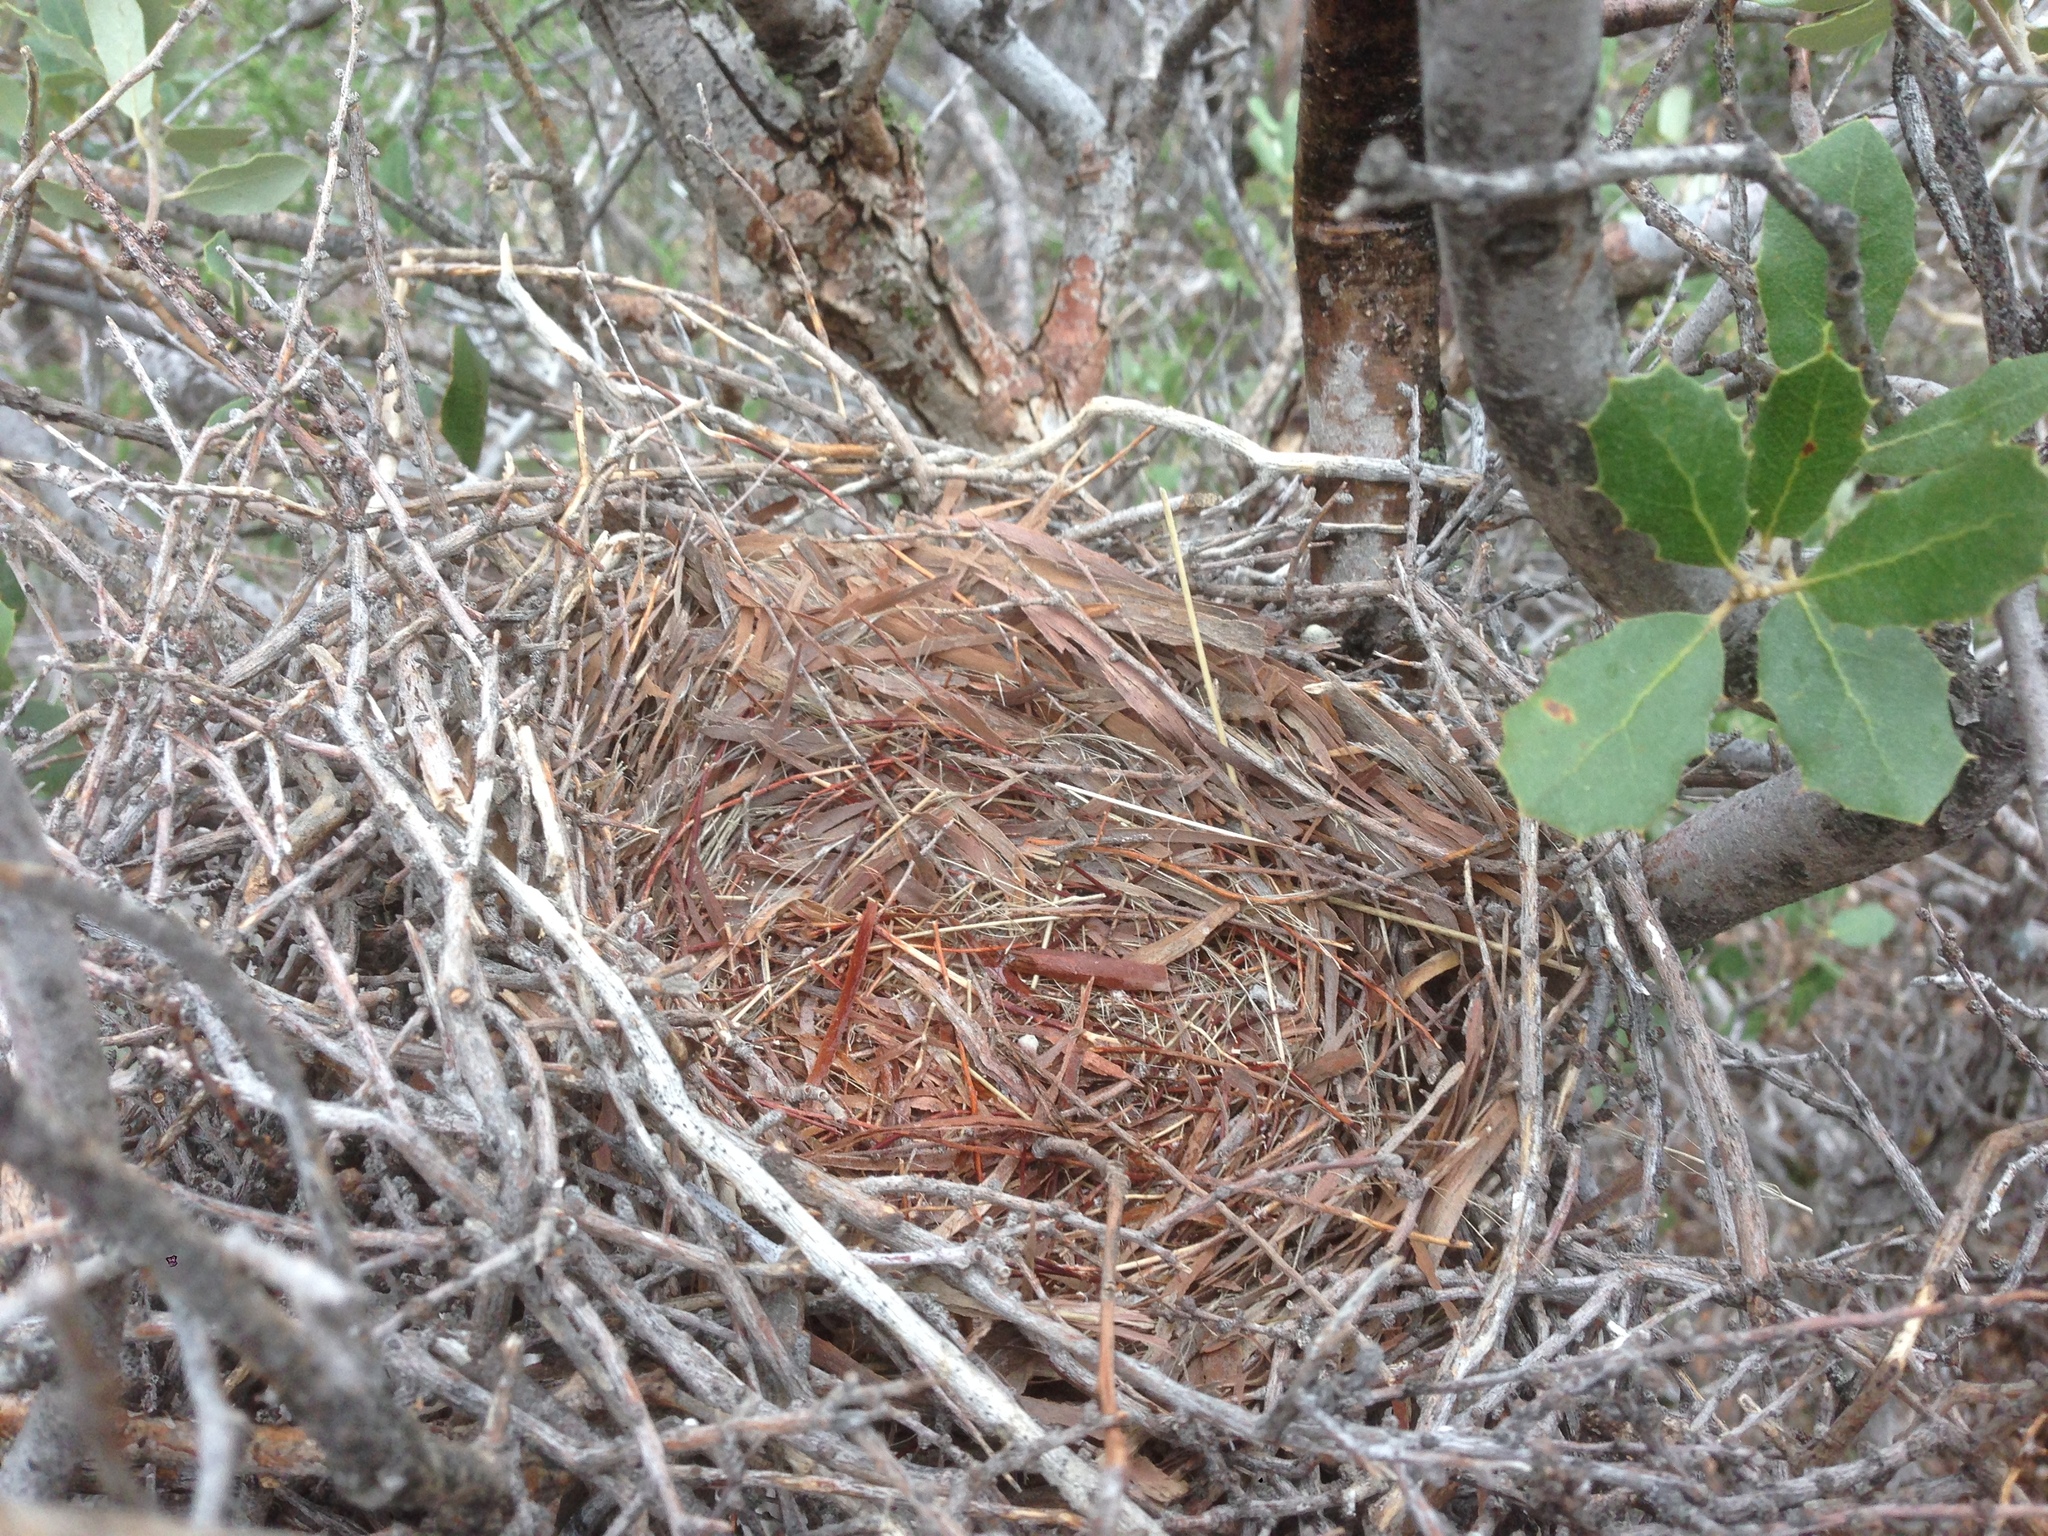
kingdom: Animalia
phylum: Chordata
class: Aves
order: Passeriformes
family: Mimidae
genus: Toxostoma
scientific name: Toxostoma redivivum
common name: California thrasher
